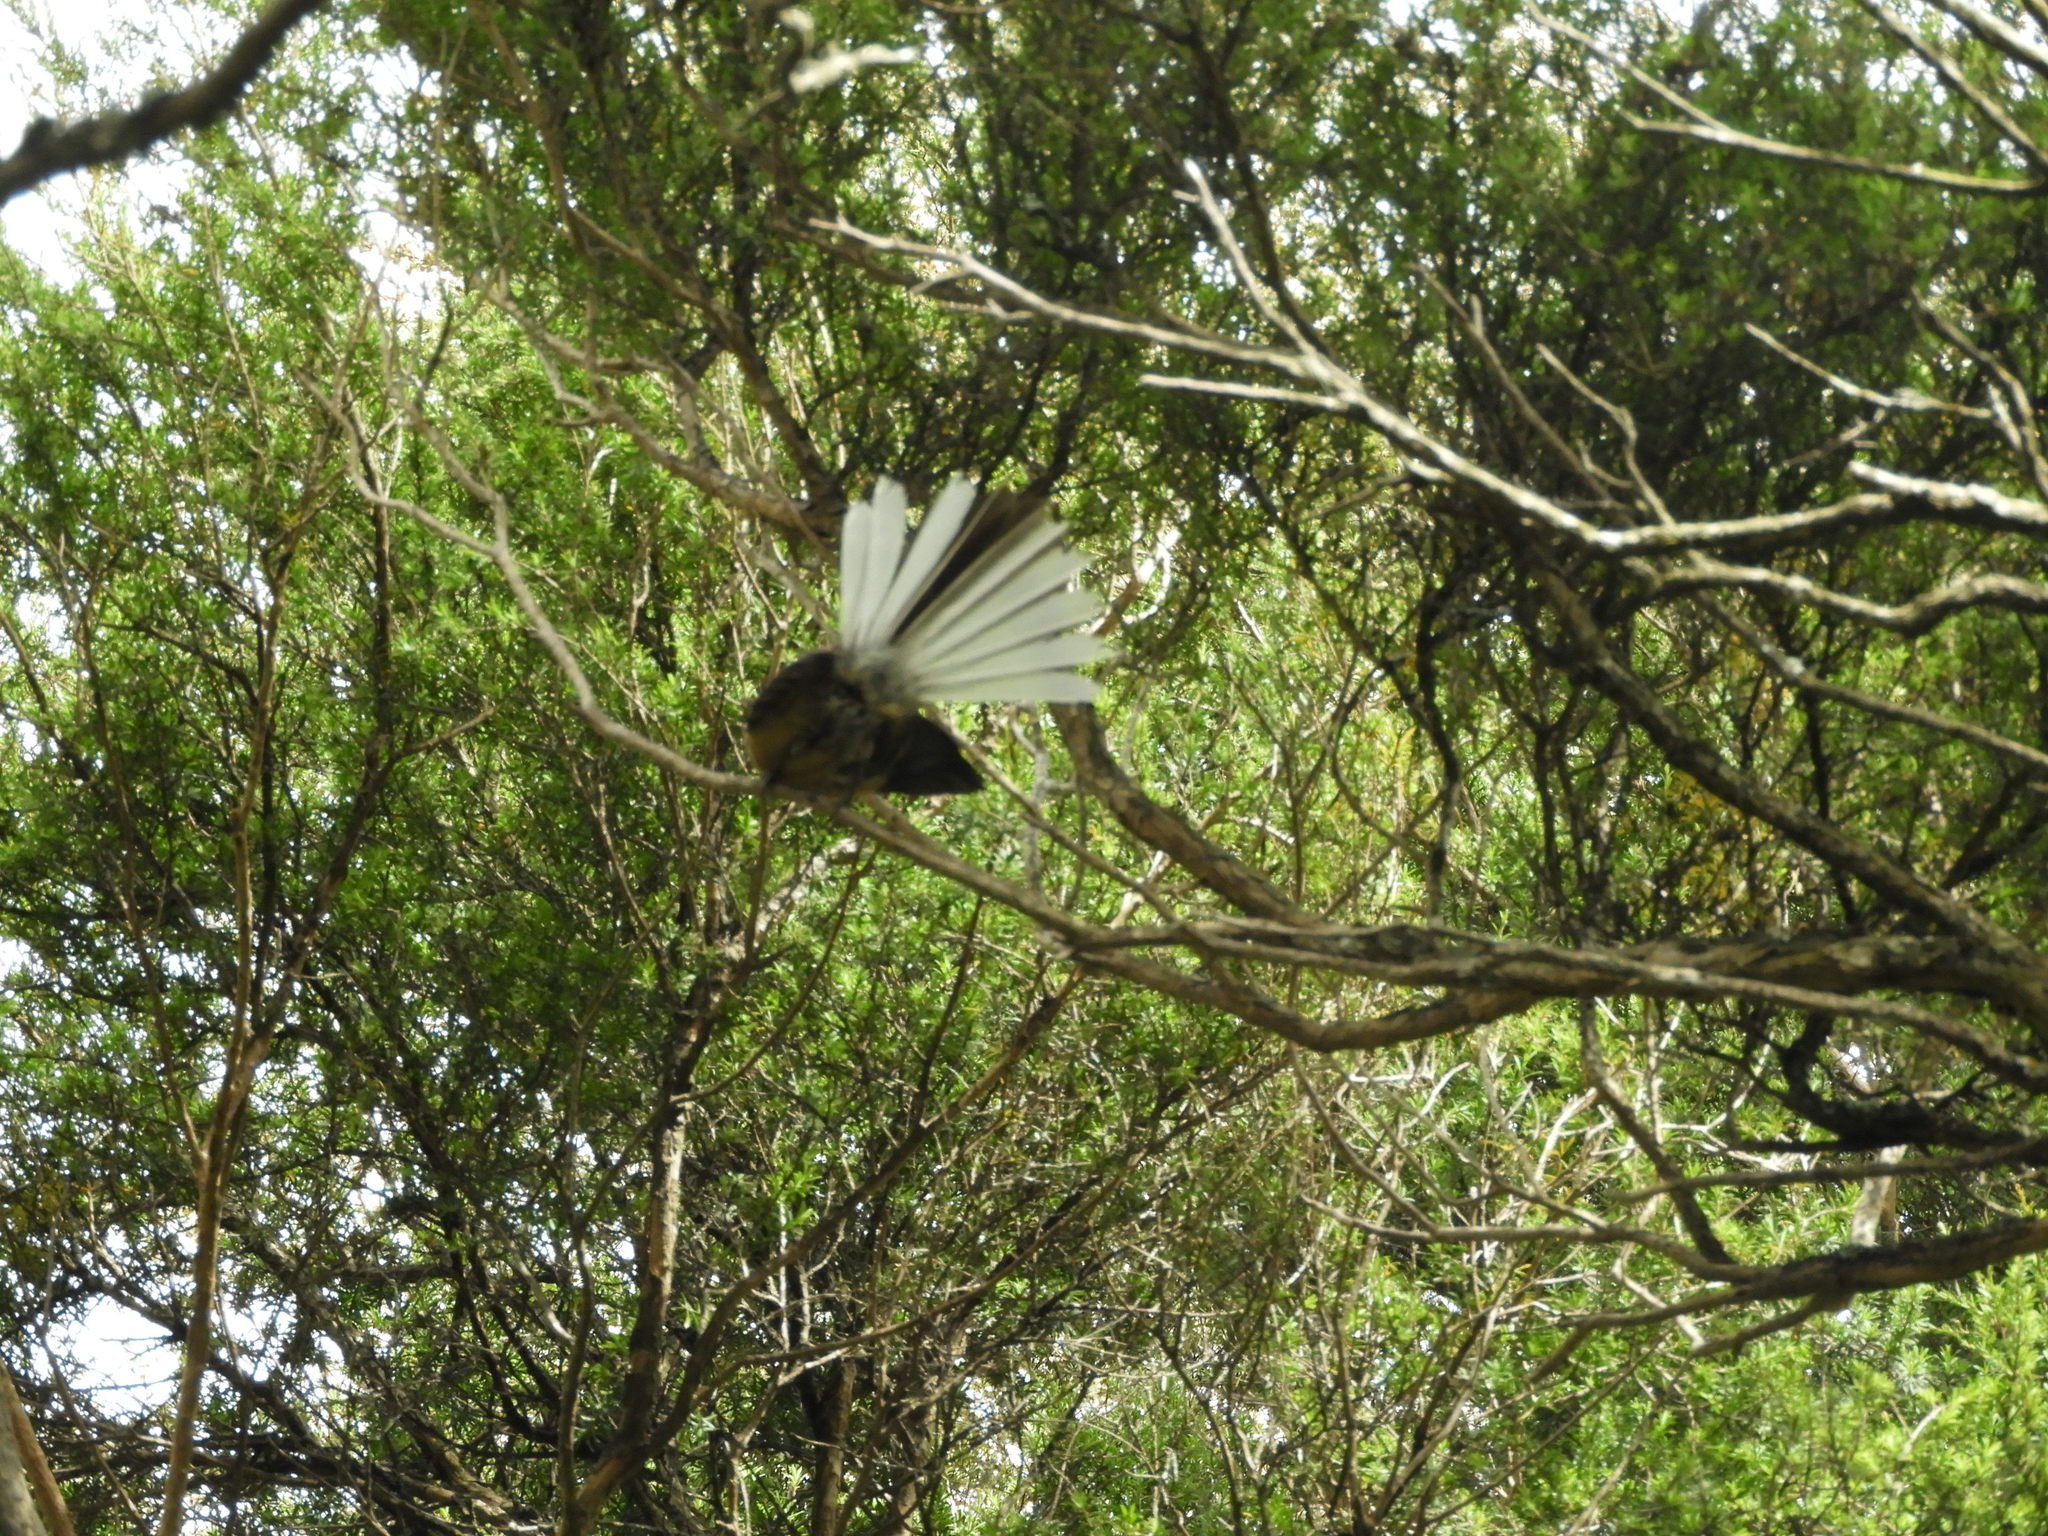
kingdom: Animalia
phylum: Chordata
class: Aves
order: Passeriformes
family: Rhipiduridae
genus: Rhipidura
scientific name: Rhipidura fuliginosa
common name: New zealand fantail
